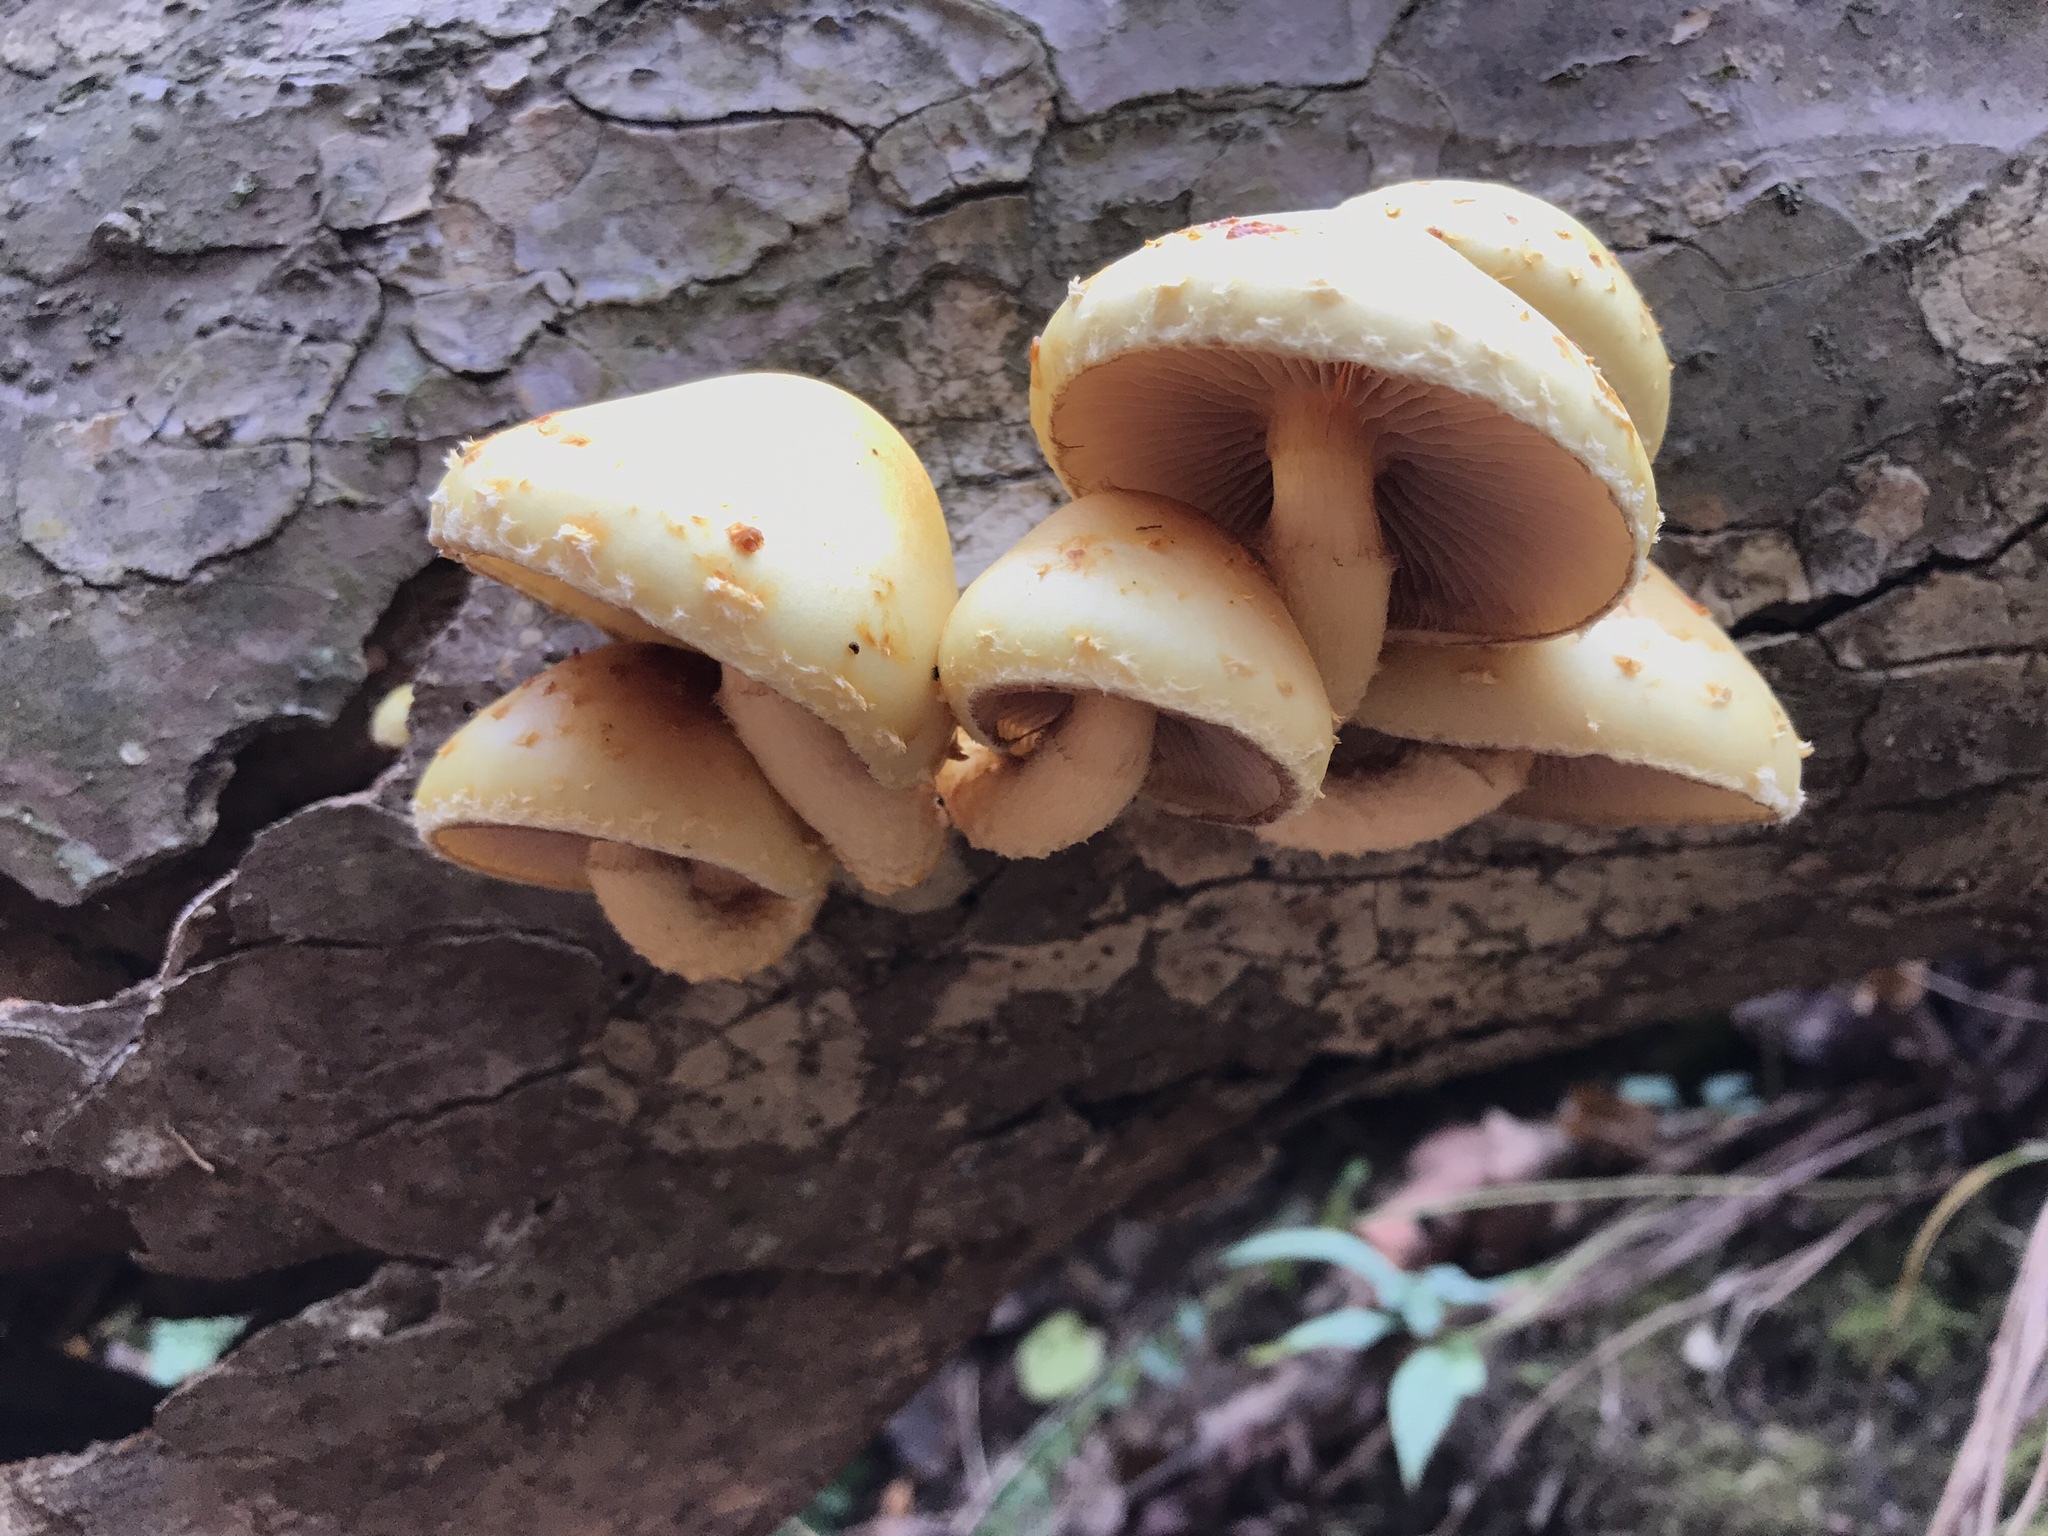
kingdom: Fungi
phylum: Basidiomycota
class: Agaricomycetes
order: Agaricales
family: Strophariaceae
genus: Pholiota
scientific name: Pholiota aurivella
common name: Golden scalycap
